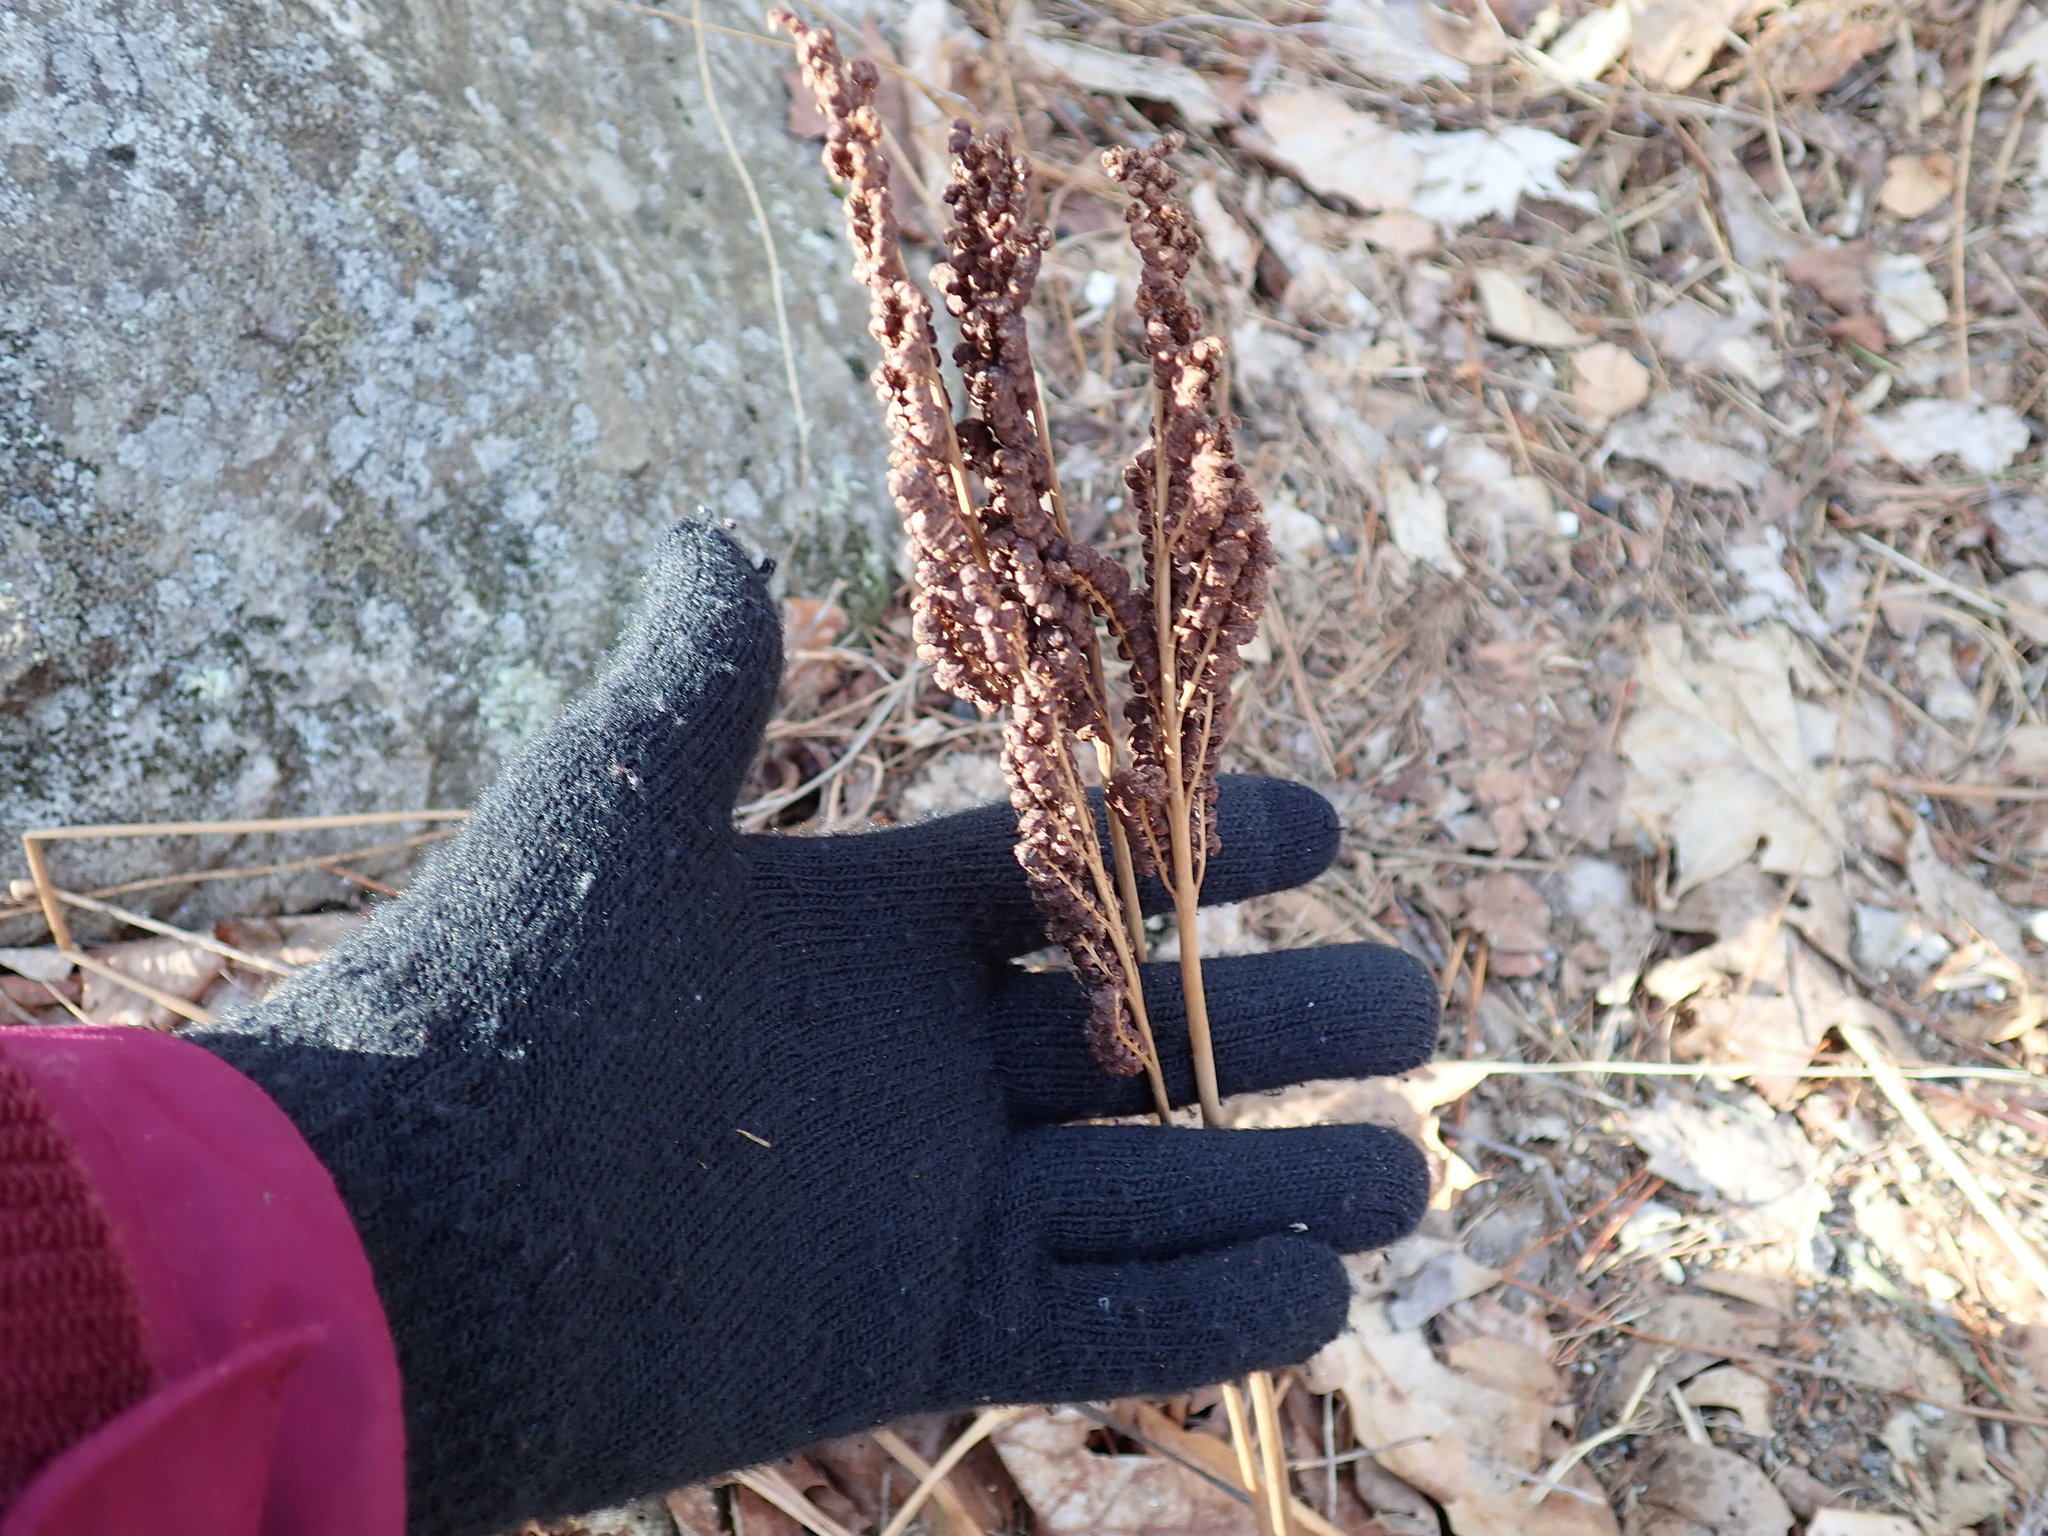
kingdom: Plantae
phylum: Tracheophyta
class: Polypodiopsida
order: Polypodiales
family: Onocleaceae
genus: Onoclea
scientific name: Onoclea sensibilis
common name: Sensitive fern
